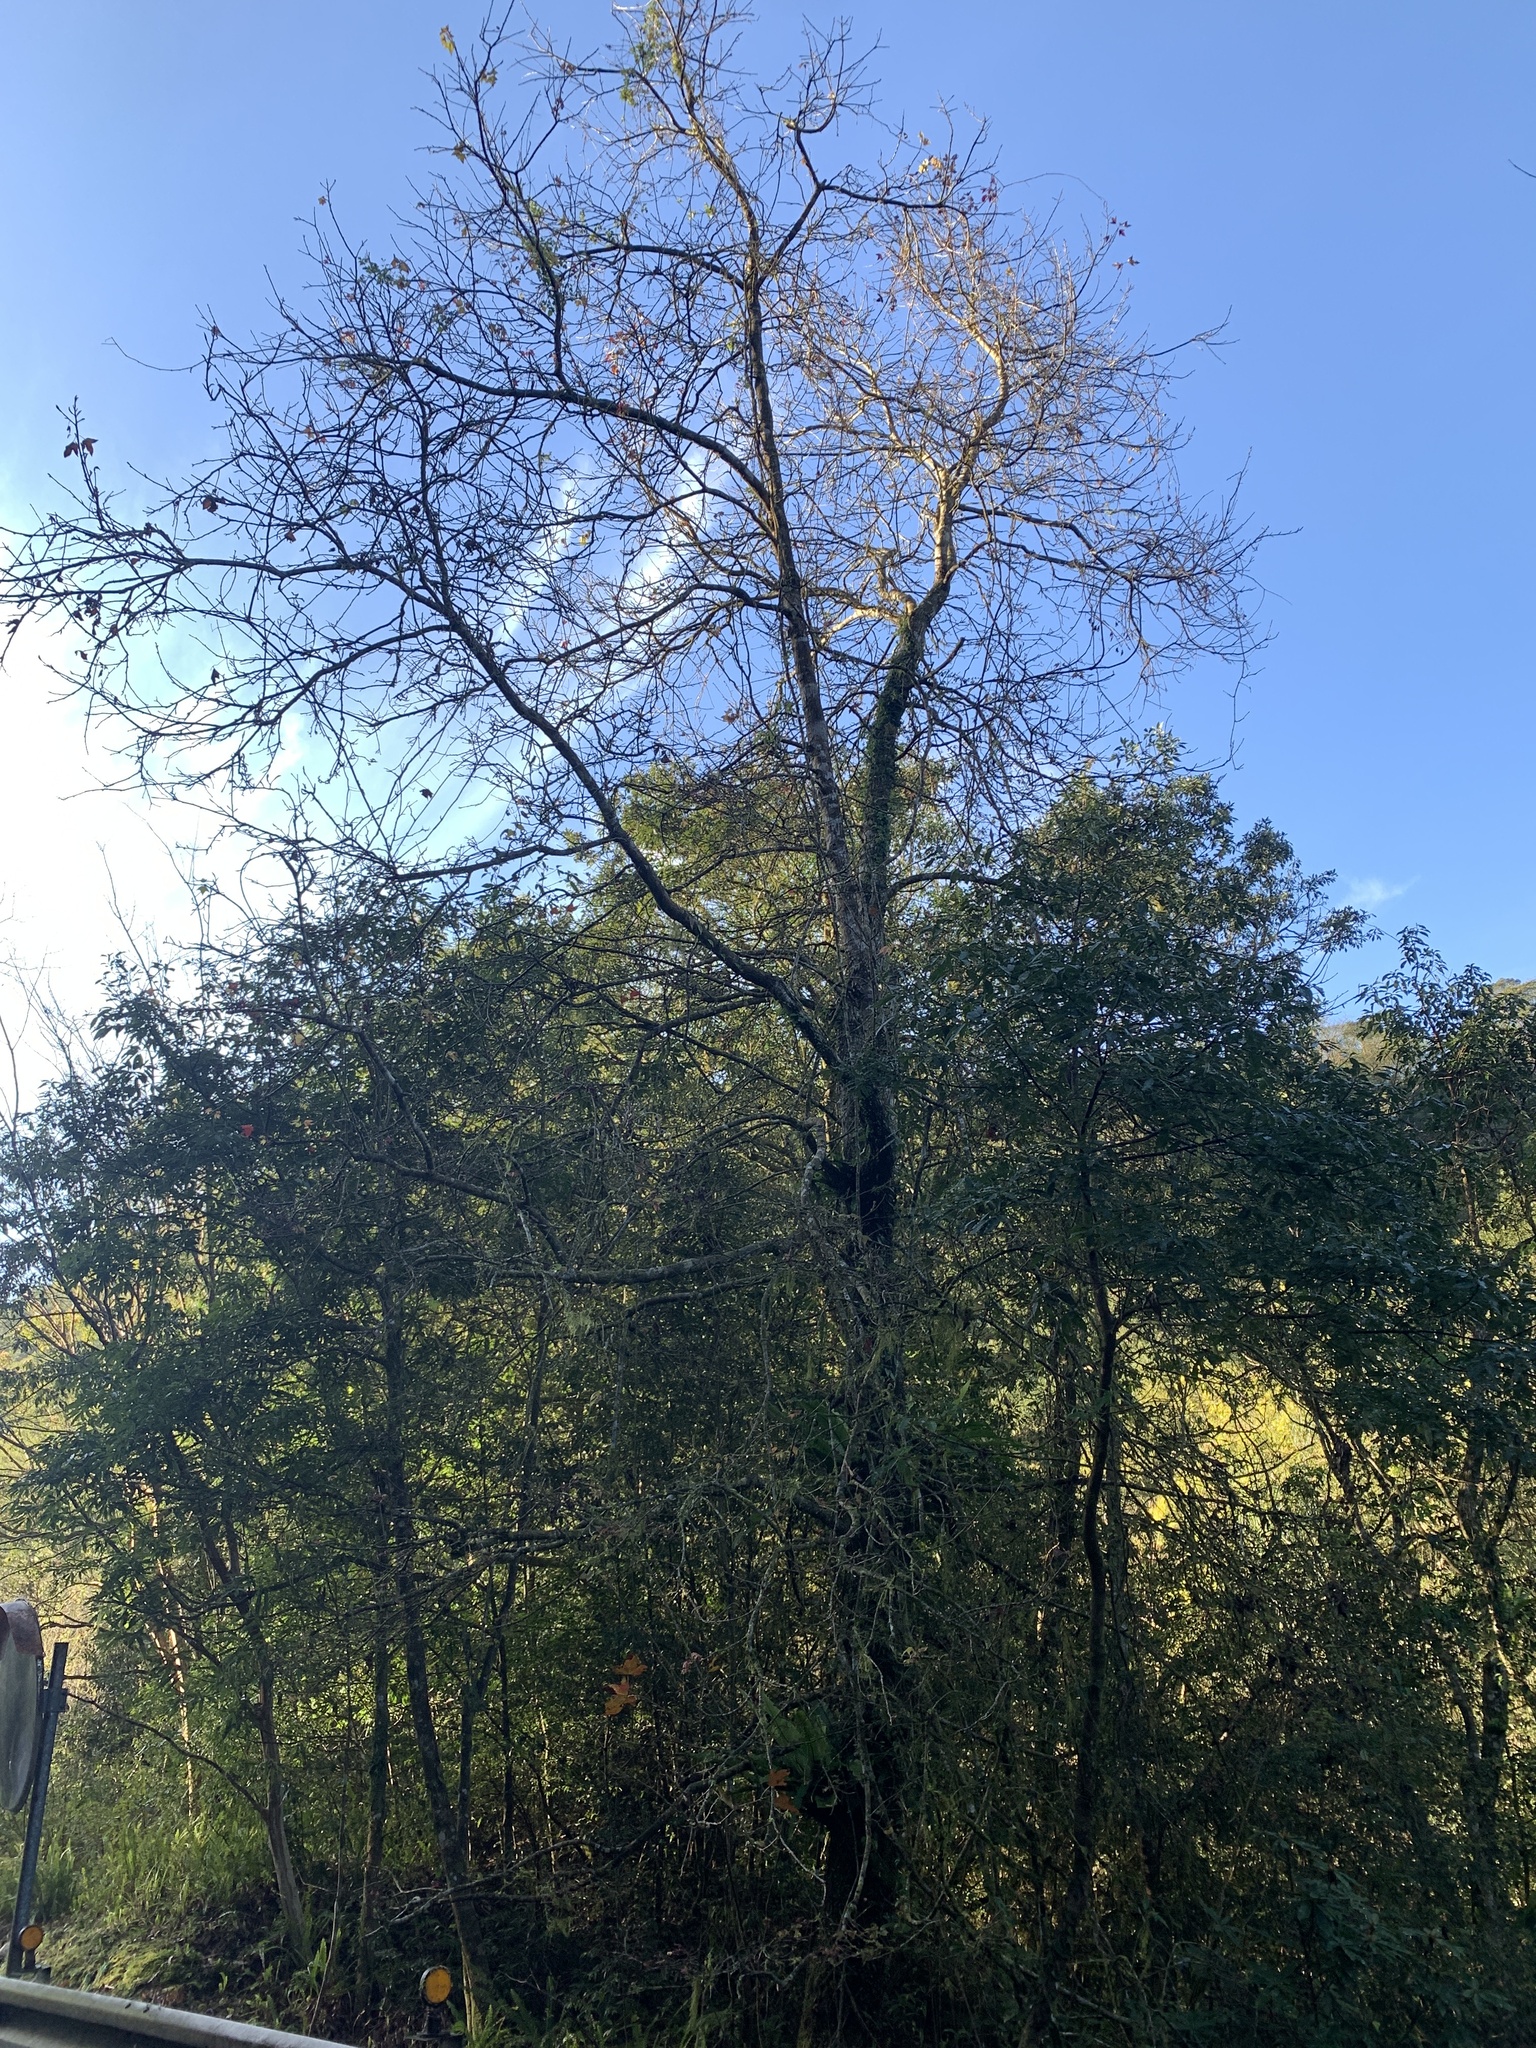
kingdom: Plantae
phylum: Tracheophyta
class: Magnoliopsida
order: Saxifragales
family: Altingiaceae
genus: Liquidambar
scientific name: Liquidambar formosana
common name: Chinese sweet gum
